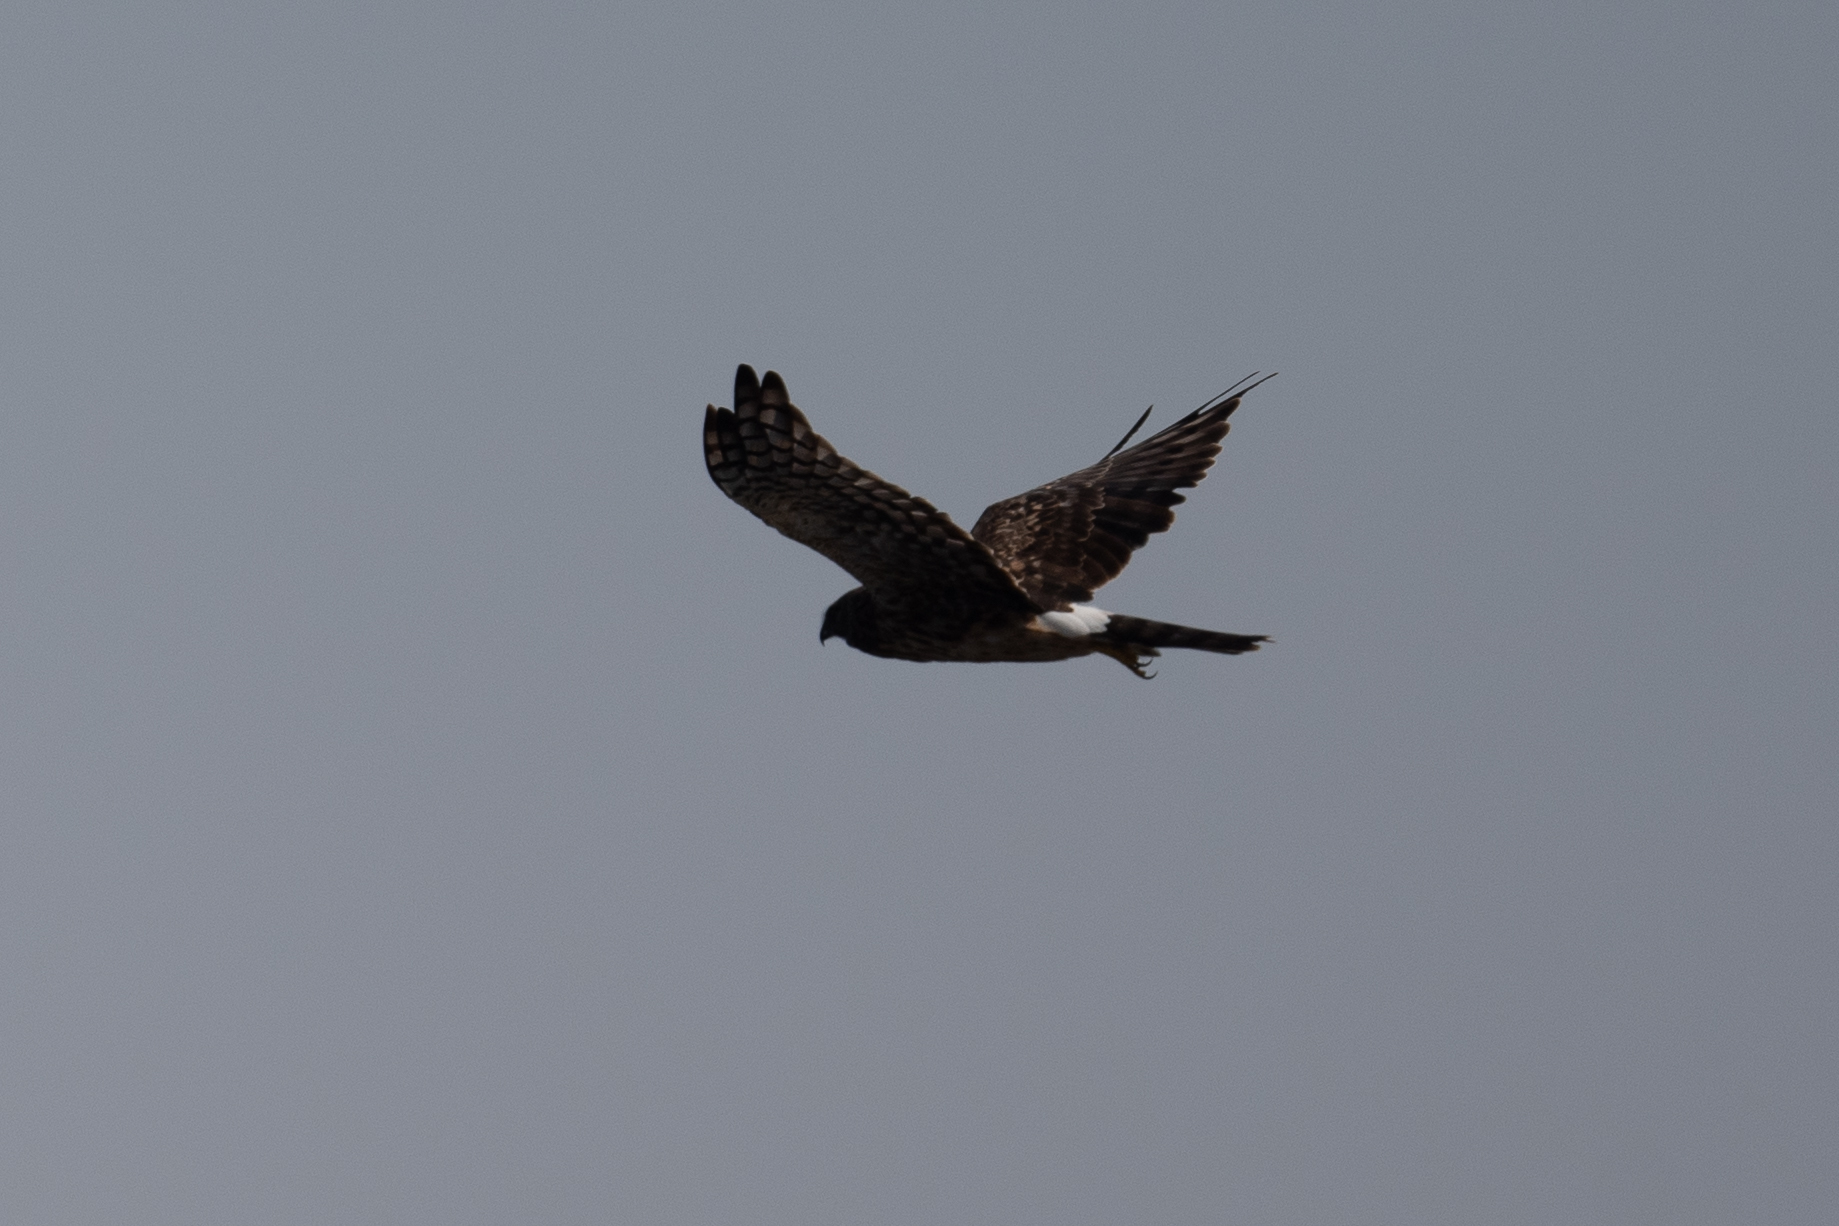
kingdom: Animalia
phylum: Chordata
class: Aves
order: Accipitriformes
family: Accipitridae
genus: Circus
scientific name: Circus cyaneus
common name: Hen harrier
